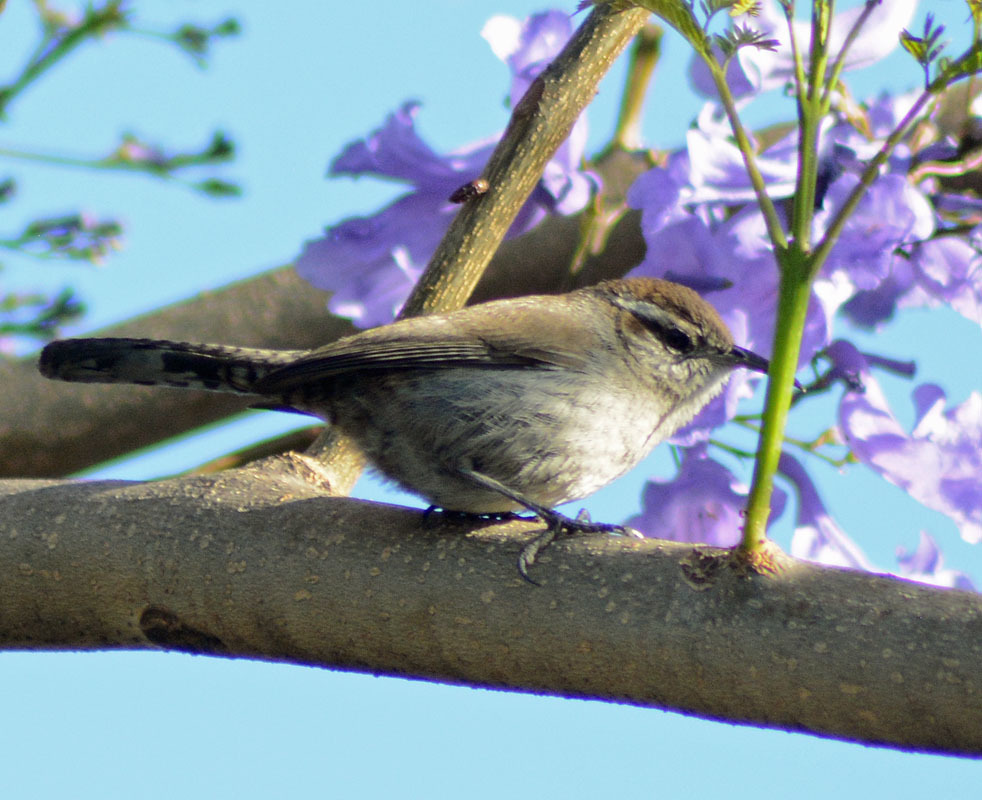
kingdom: Animalia
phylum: Chordata
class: Aves
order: Passeriformes
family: Troglodytidae
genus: Thryomanes
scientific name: Thryomanes bewickii
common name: Bewick's wren
